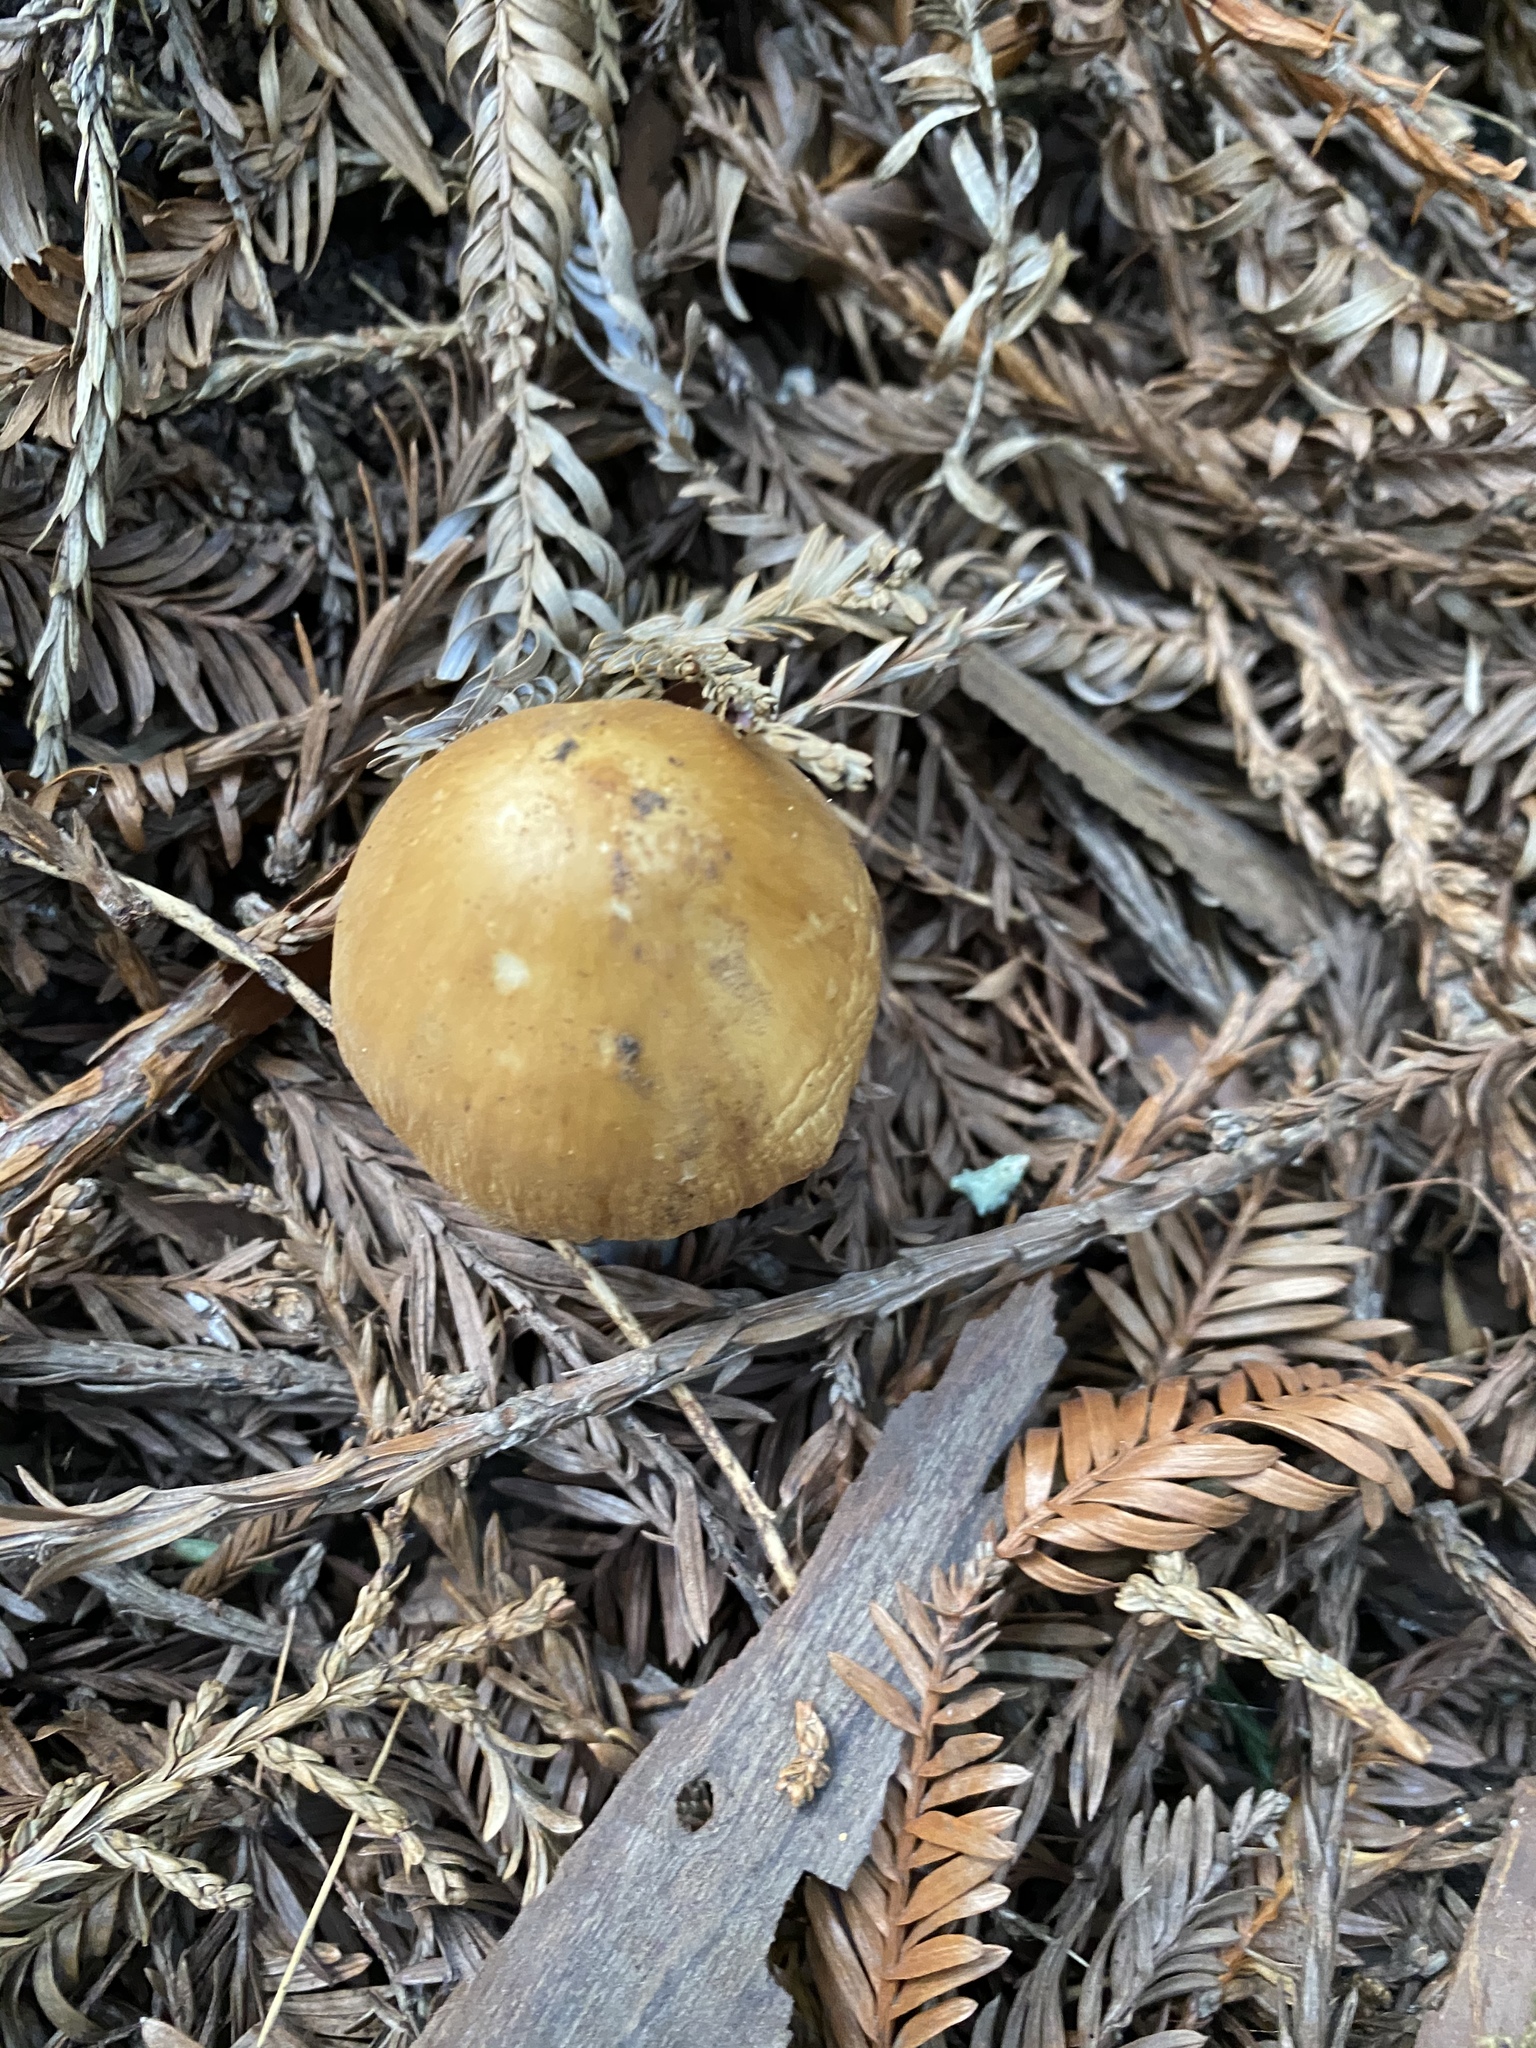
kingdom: Fungi
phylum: Basidiomycota
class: Agaricomycetes
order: Agaricales
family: Tricholomataceae
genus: Caulorhiza
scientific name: Caulorhiza umbonata
